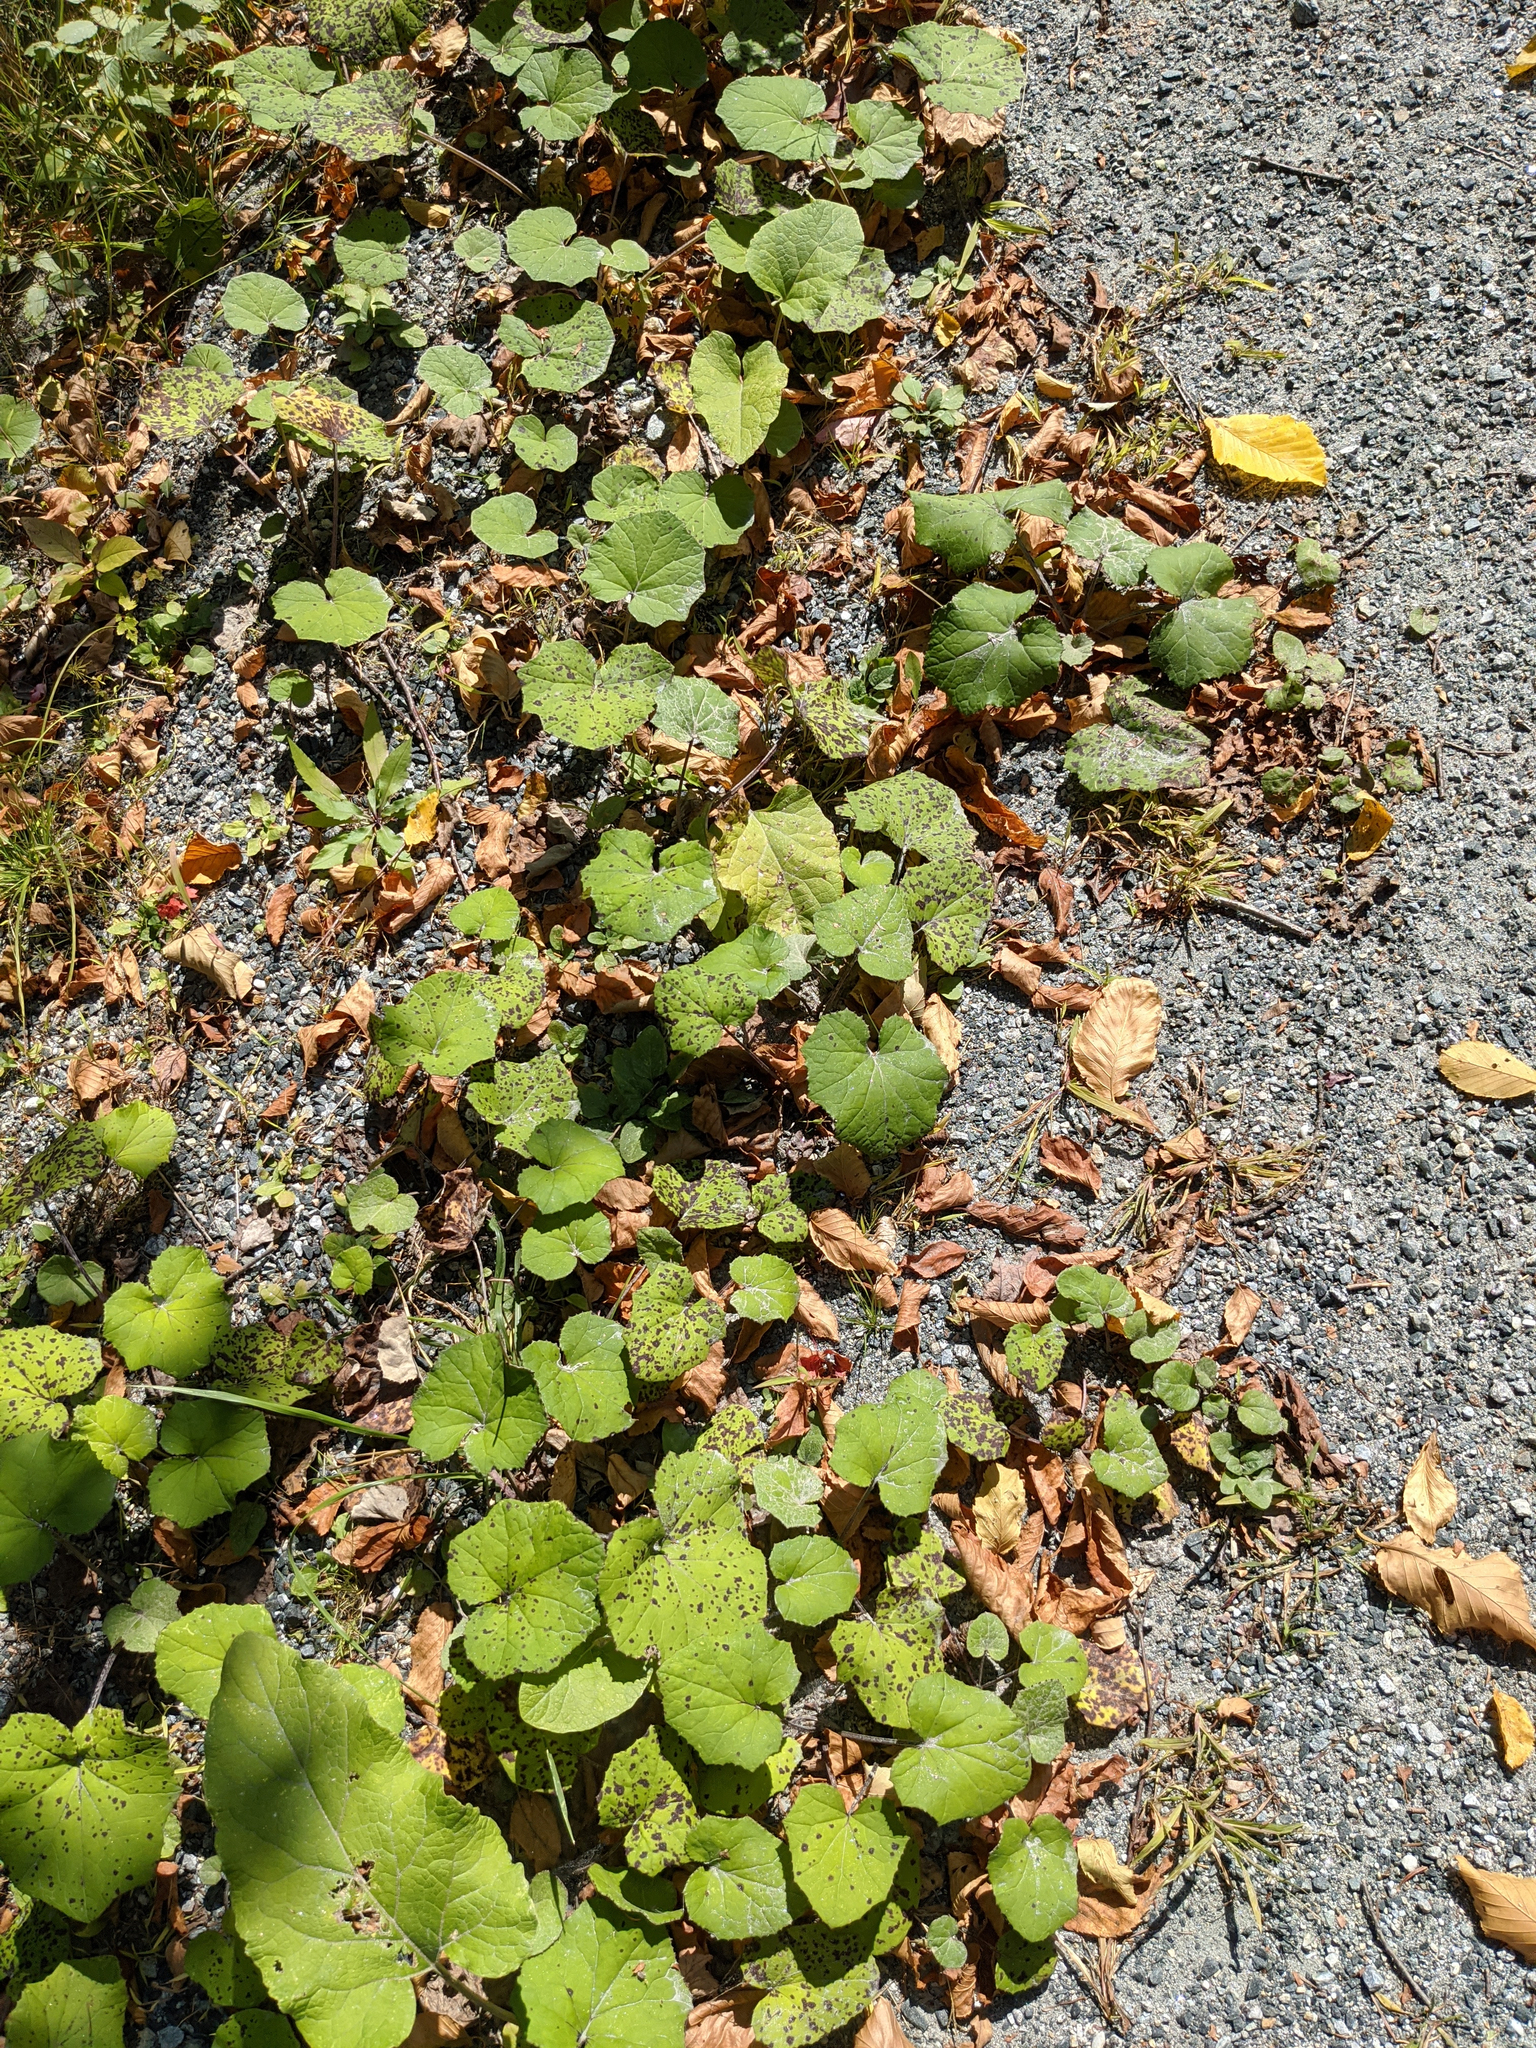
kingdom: Plantae
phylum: Tracheophyta
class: Magnoliopsida
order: Asterales
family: Asteraceae
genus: Tussilago
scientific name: Tussilago farfara
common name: Coltsfoot
